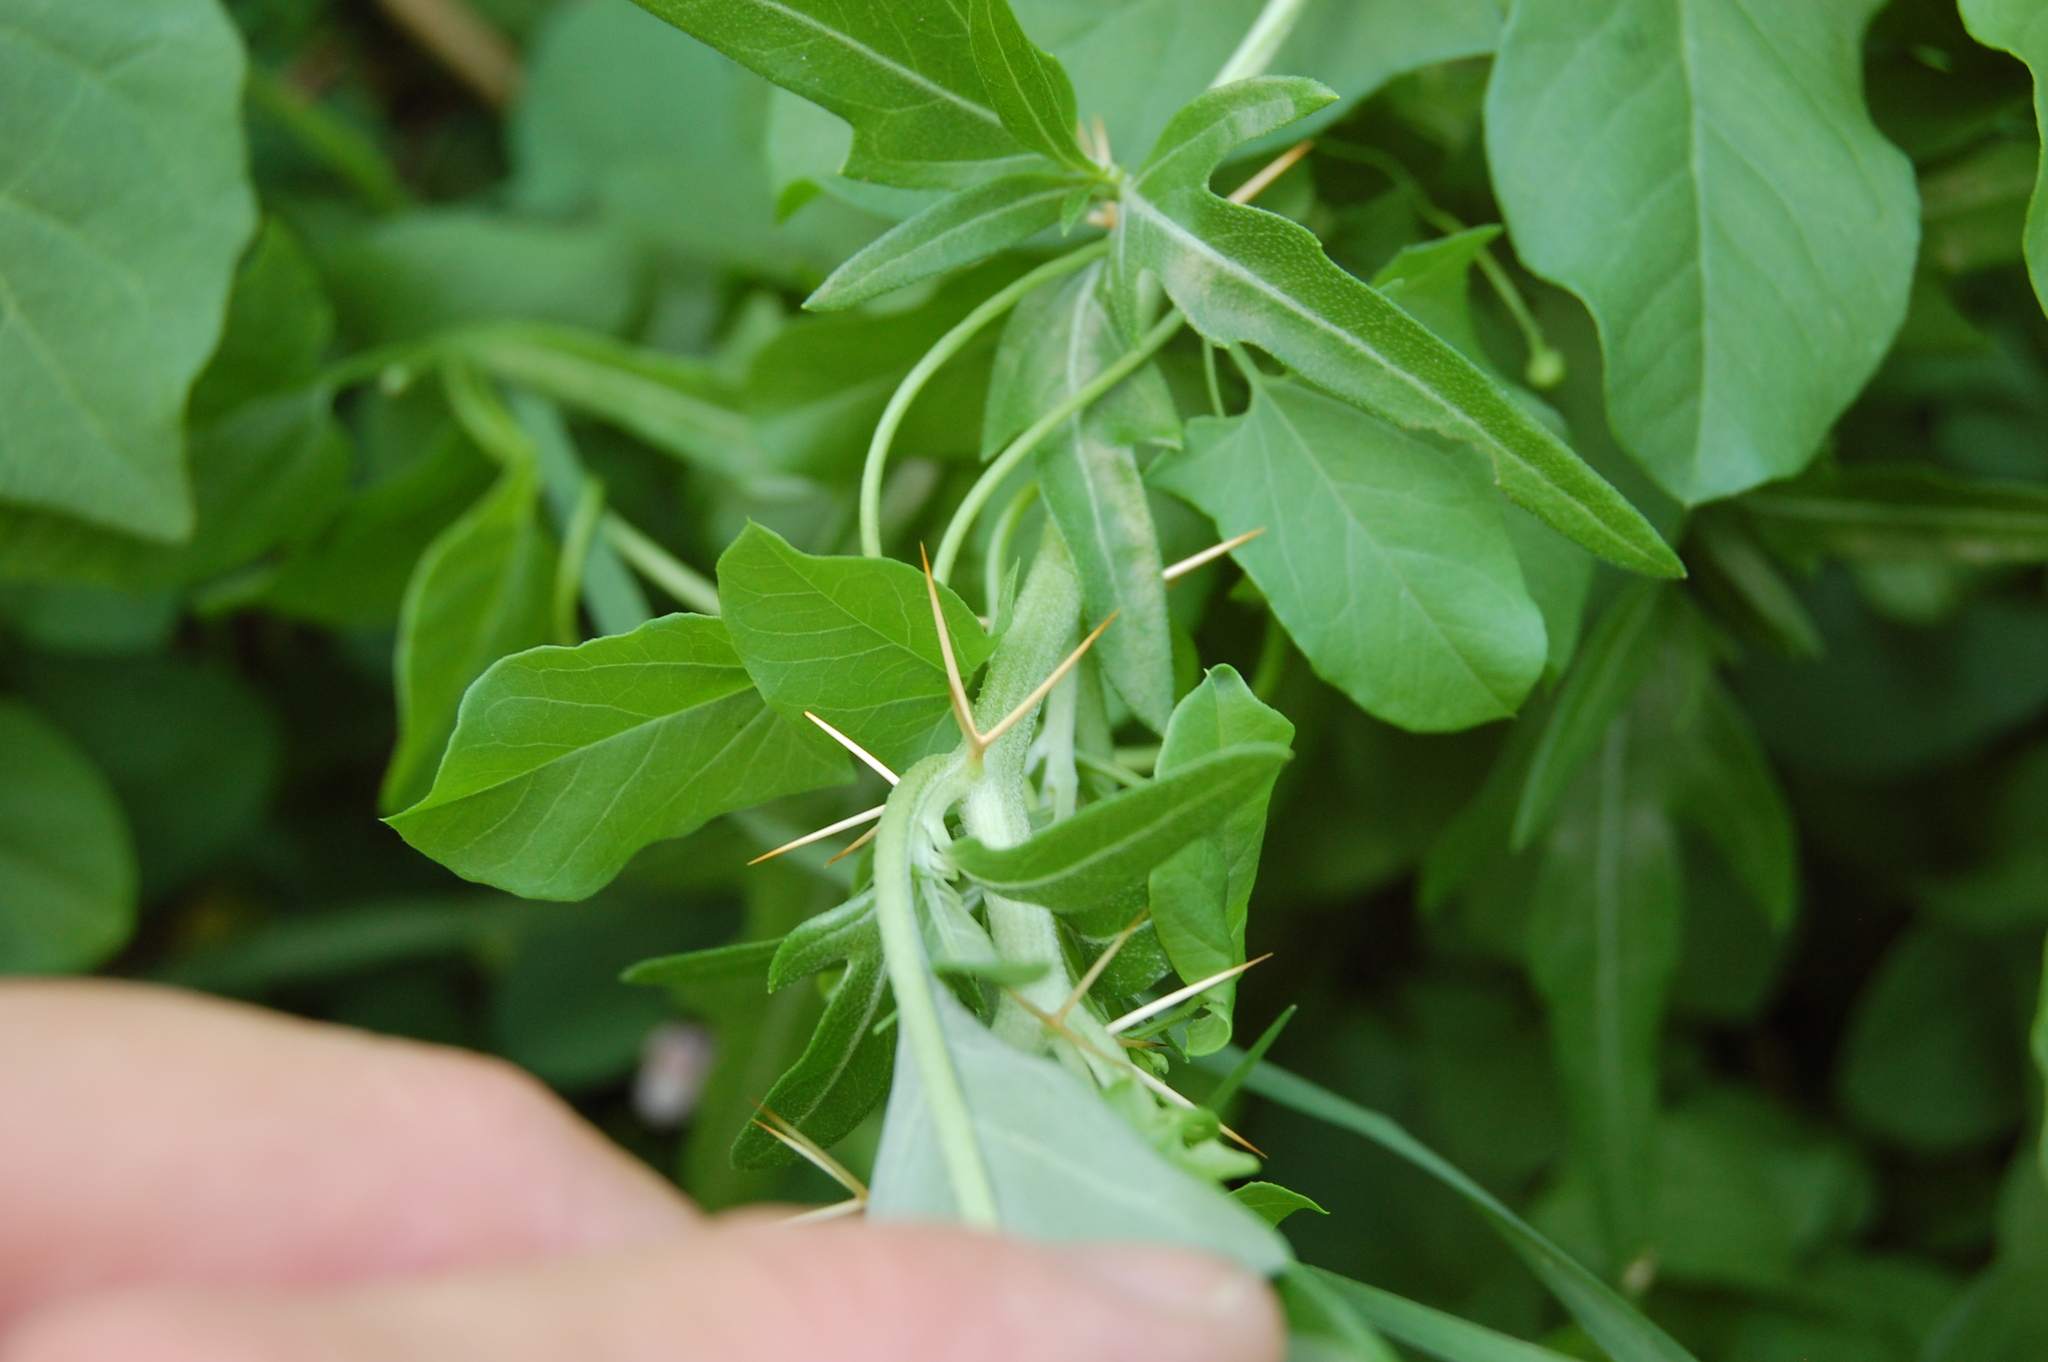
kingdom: Plantae
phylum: Tracheophyta
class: Magnoliopsida
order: Asterales
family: Asteraceae
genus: Xanthium
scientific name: Xanthium spinosum
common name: Spiny cocklebur
